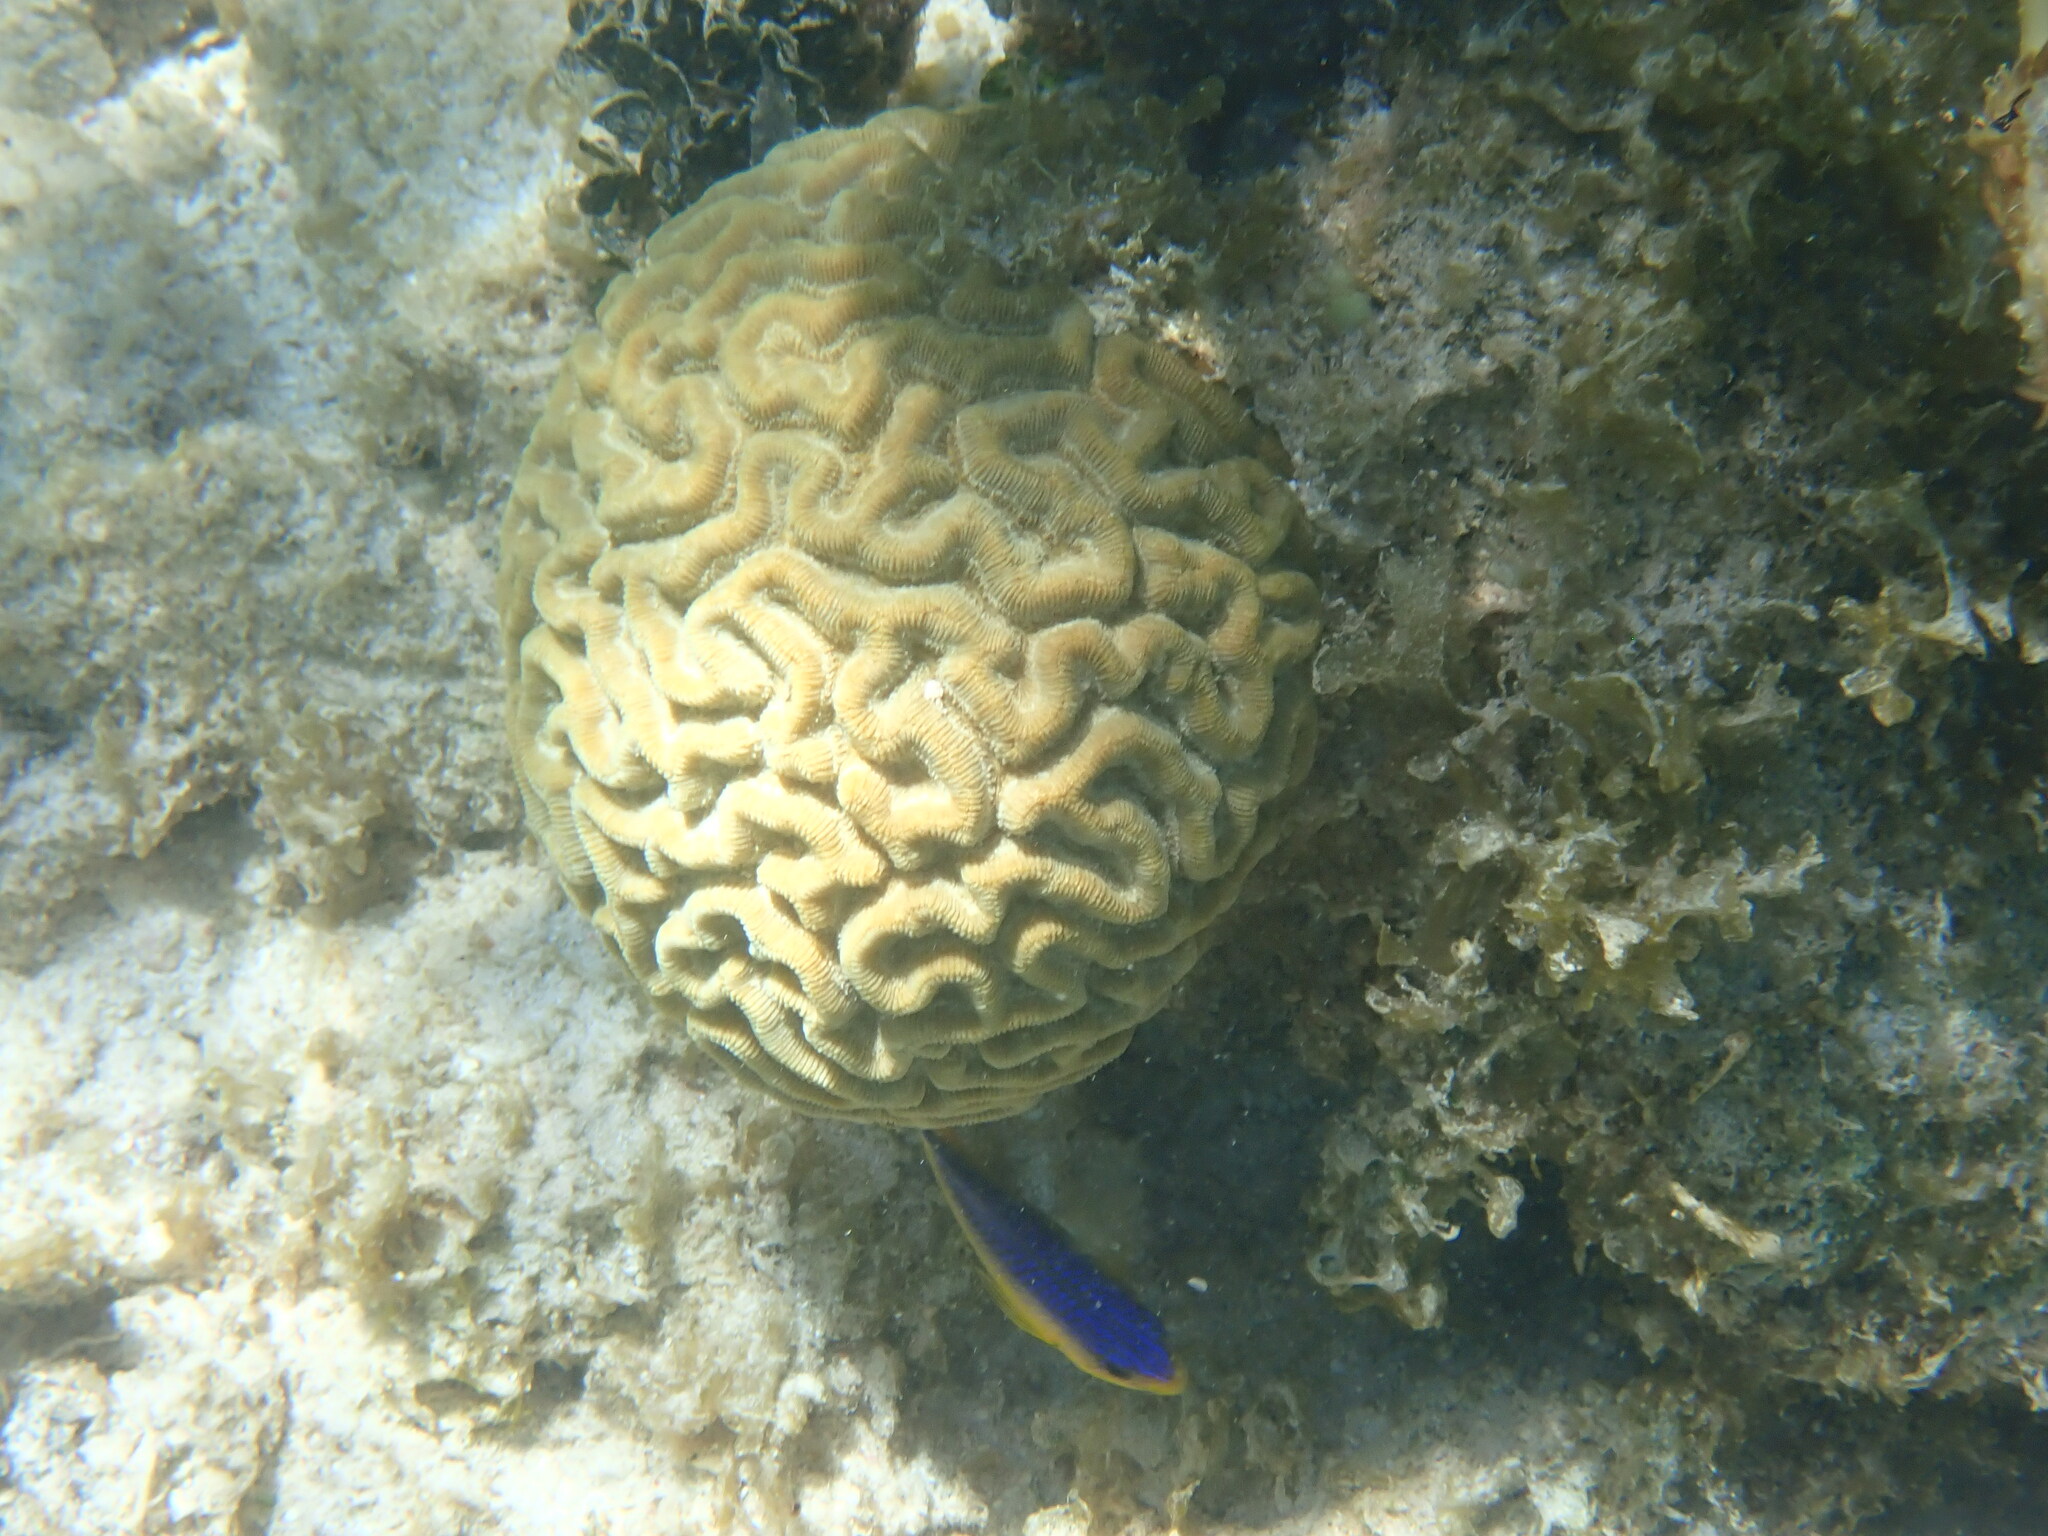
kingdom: Animalia
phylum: Chordata
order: Perciformes
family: Pomacentridae
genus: Stegastes
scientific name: Stegastes leucostictus
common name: Beaugregory
